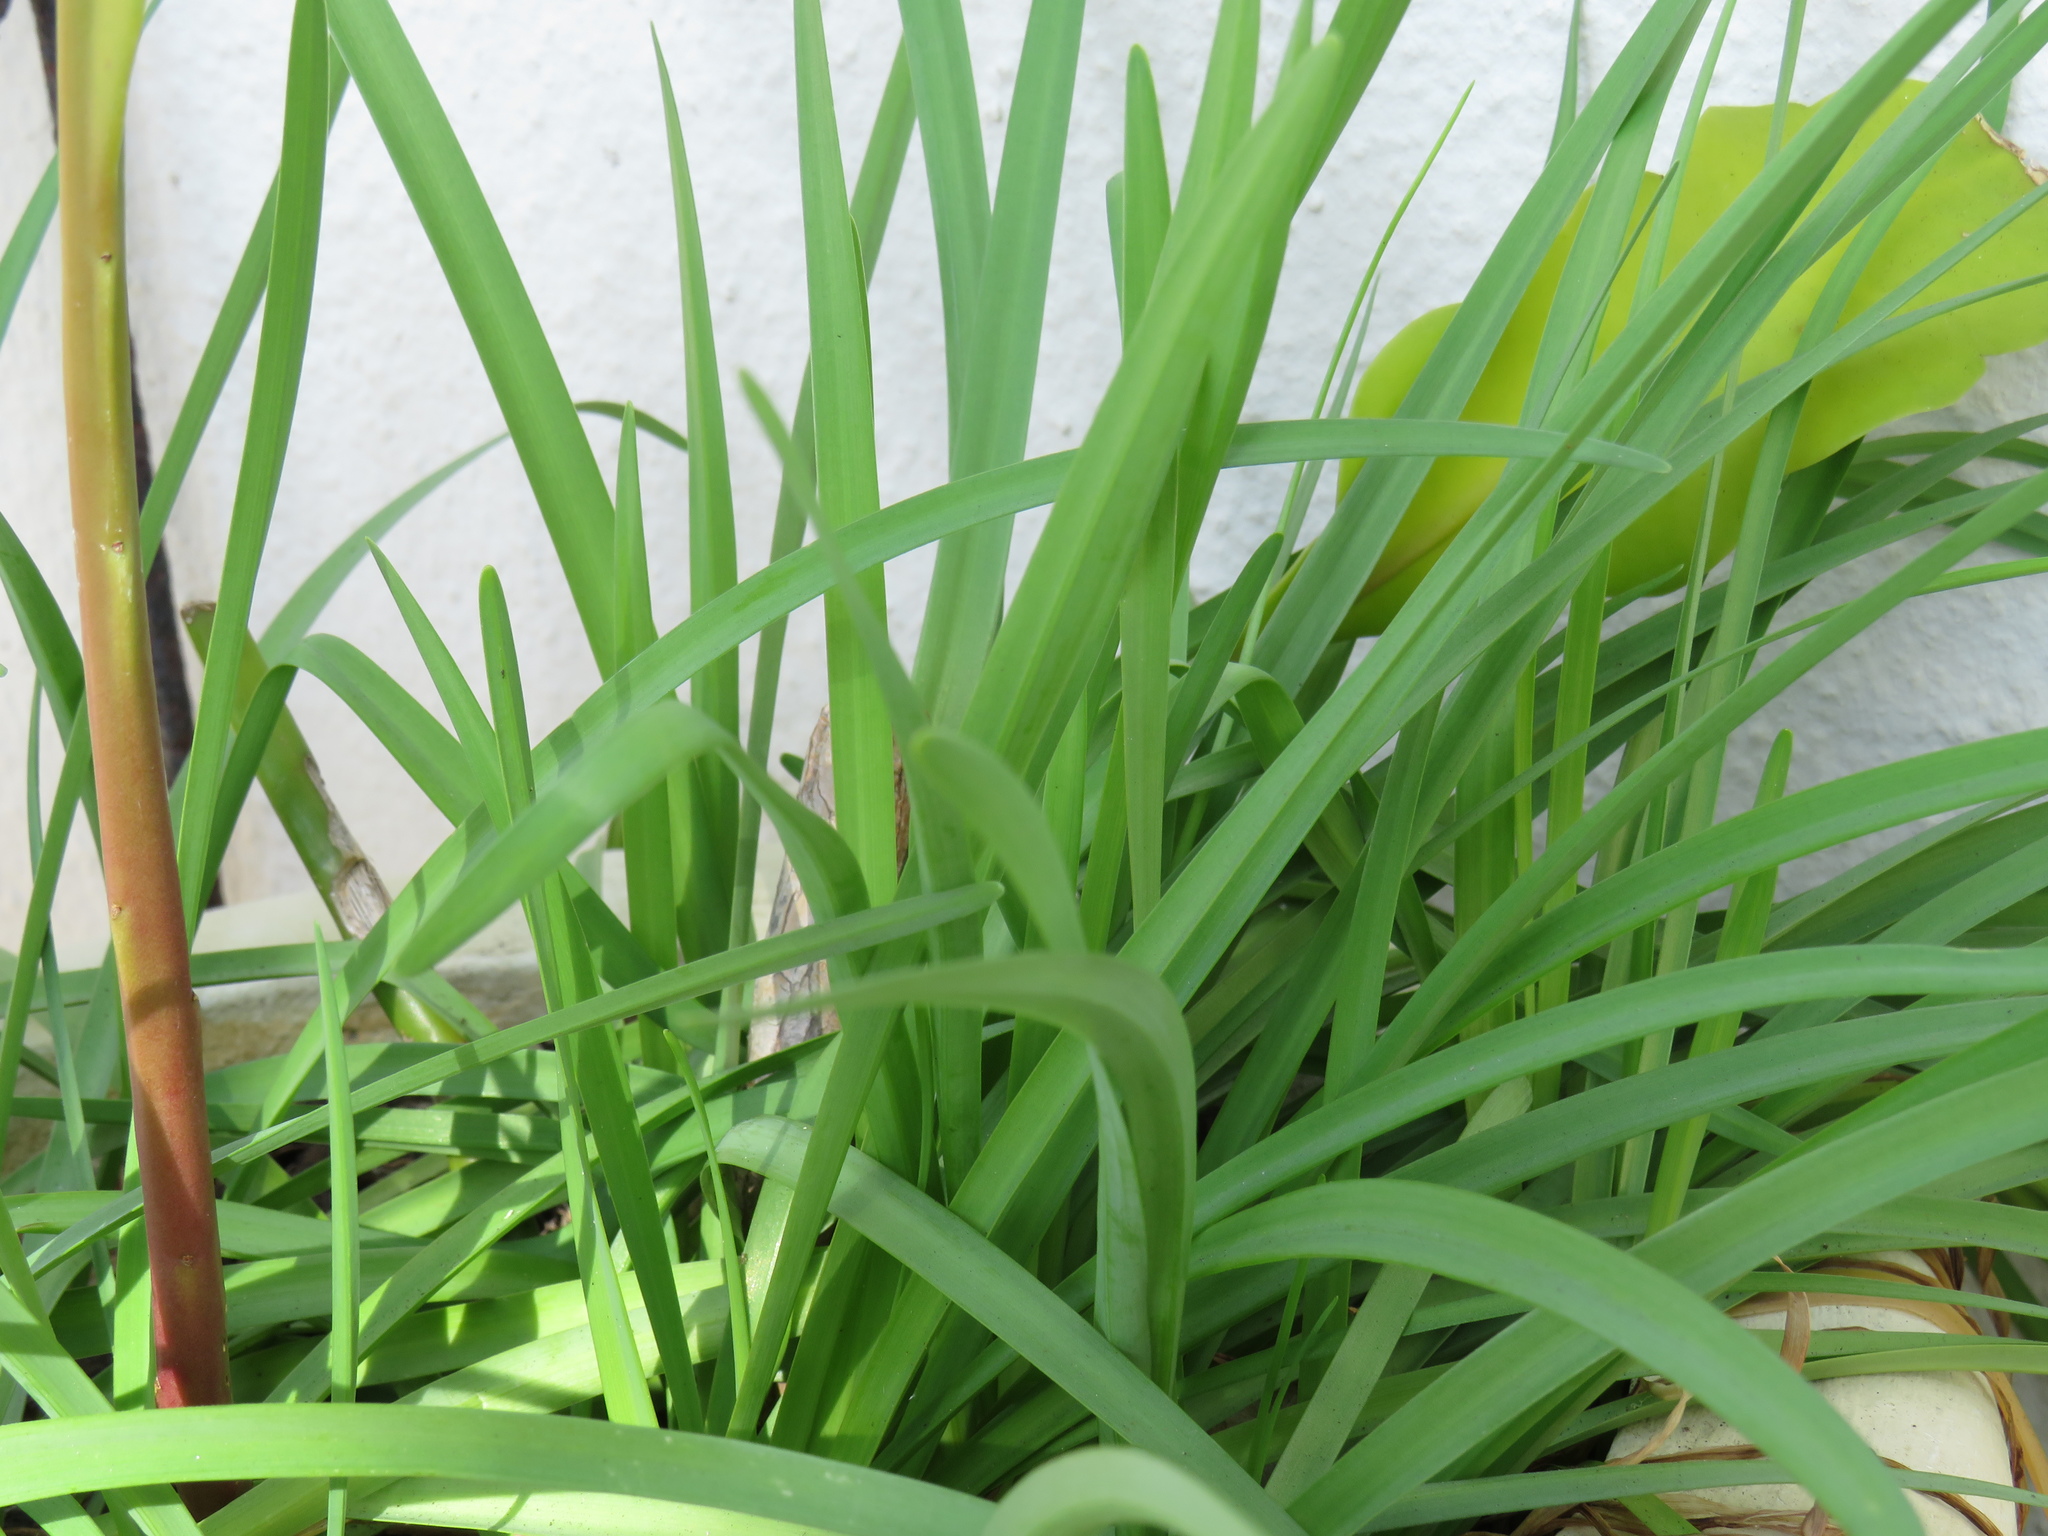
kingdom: Plantae
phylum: Tracheophyta
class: Liliopsida
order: Asparagales
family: Amaryllidaceae
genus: Nothoscordum
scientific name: Nothoscordum gracile
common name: Slender false garlic
